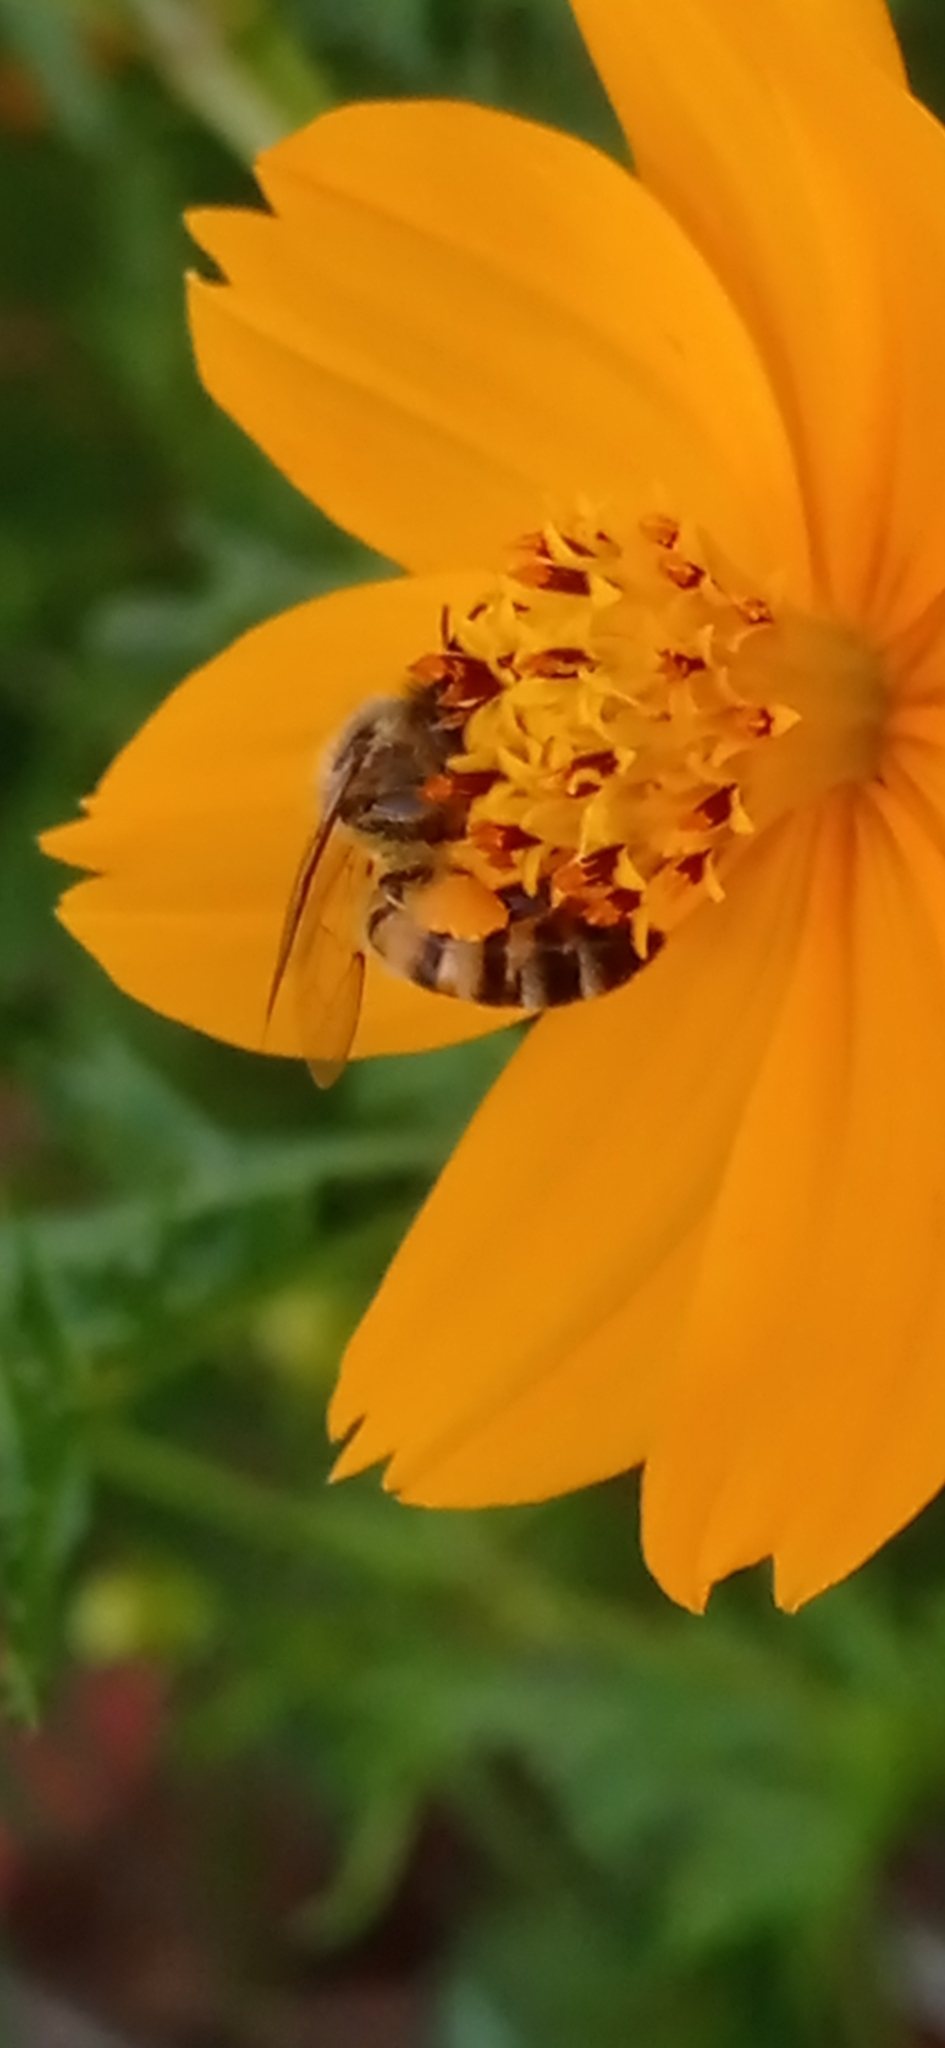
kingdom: Animalia
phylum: Arthropoda
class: Insecta
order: Hymenoptera
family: Apidae
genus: Apis
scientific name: Apis mellifera
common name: Honey bee
